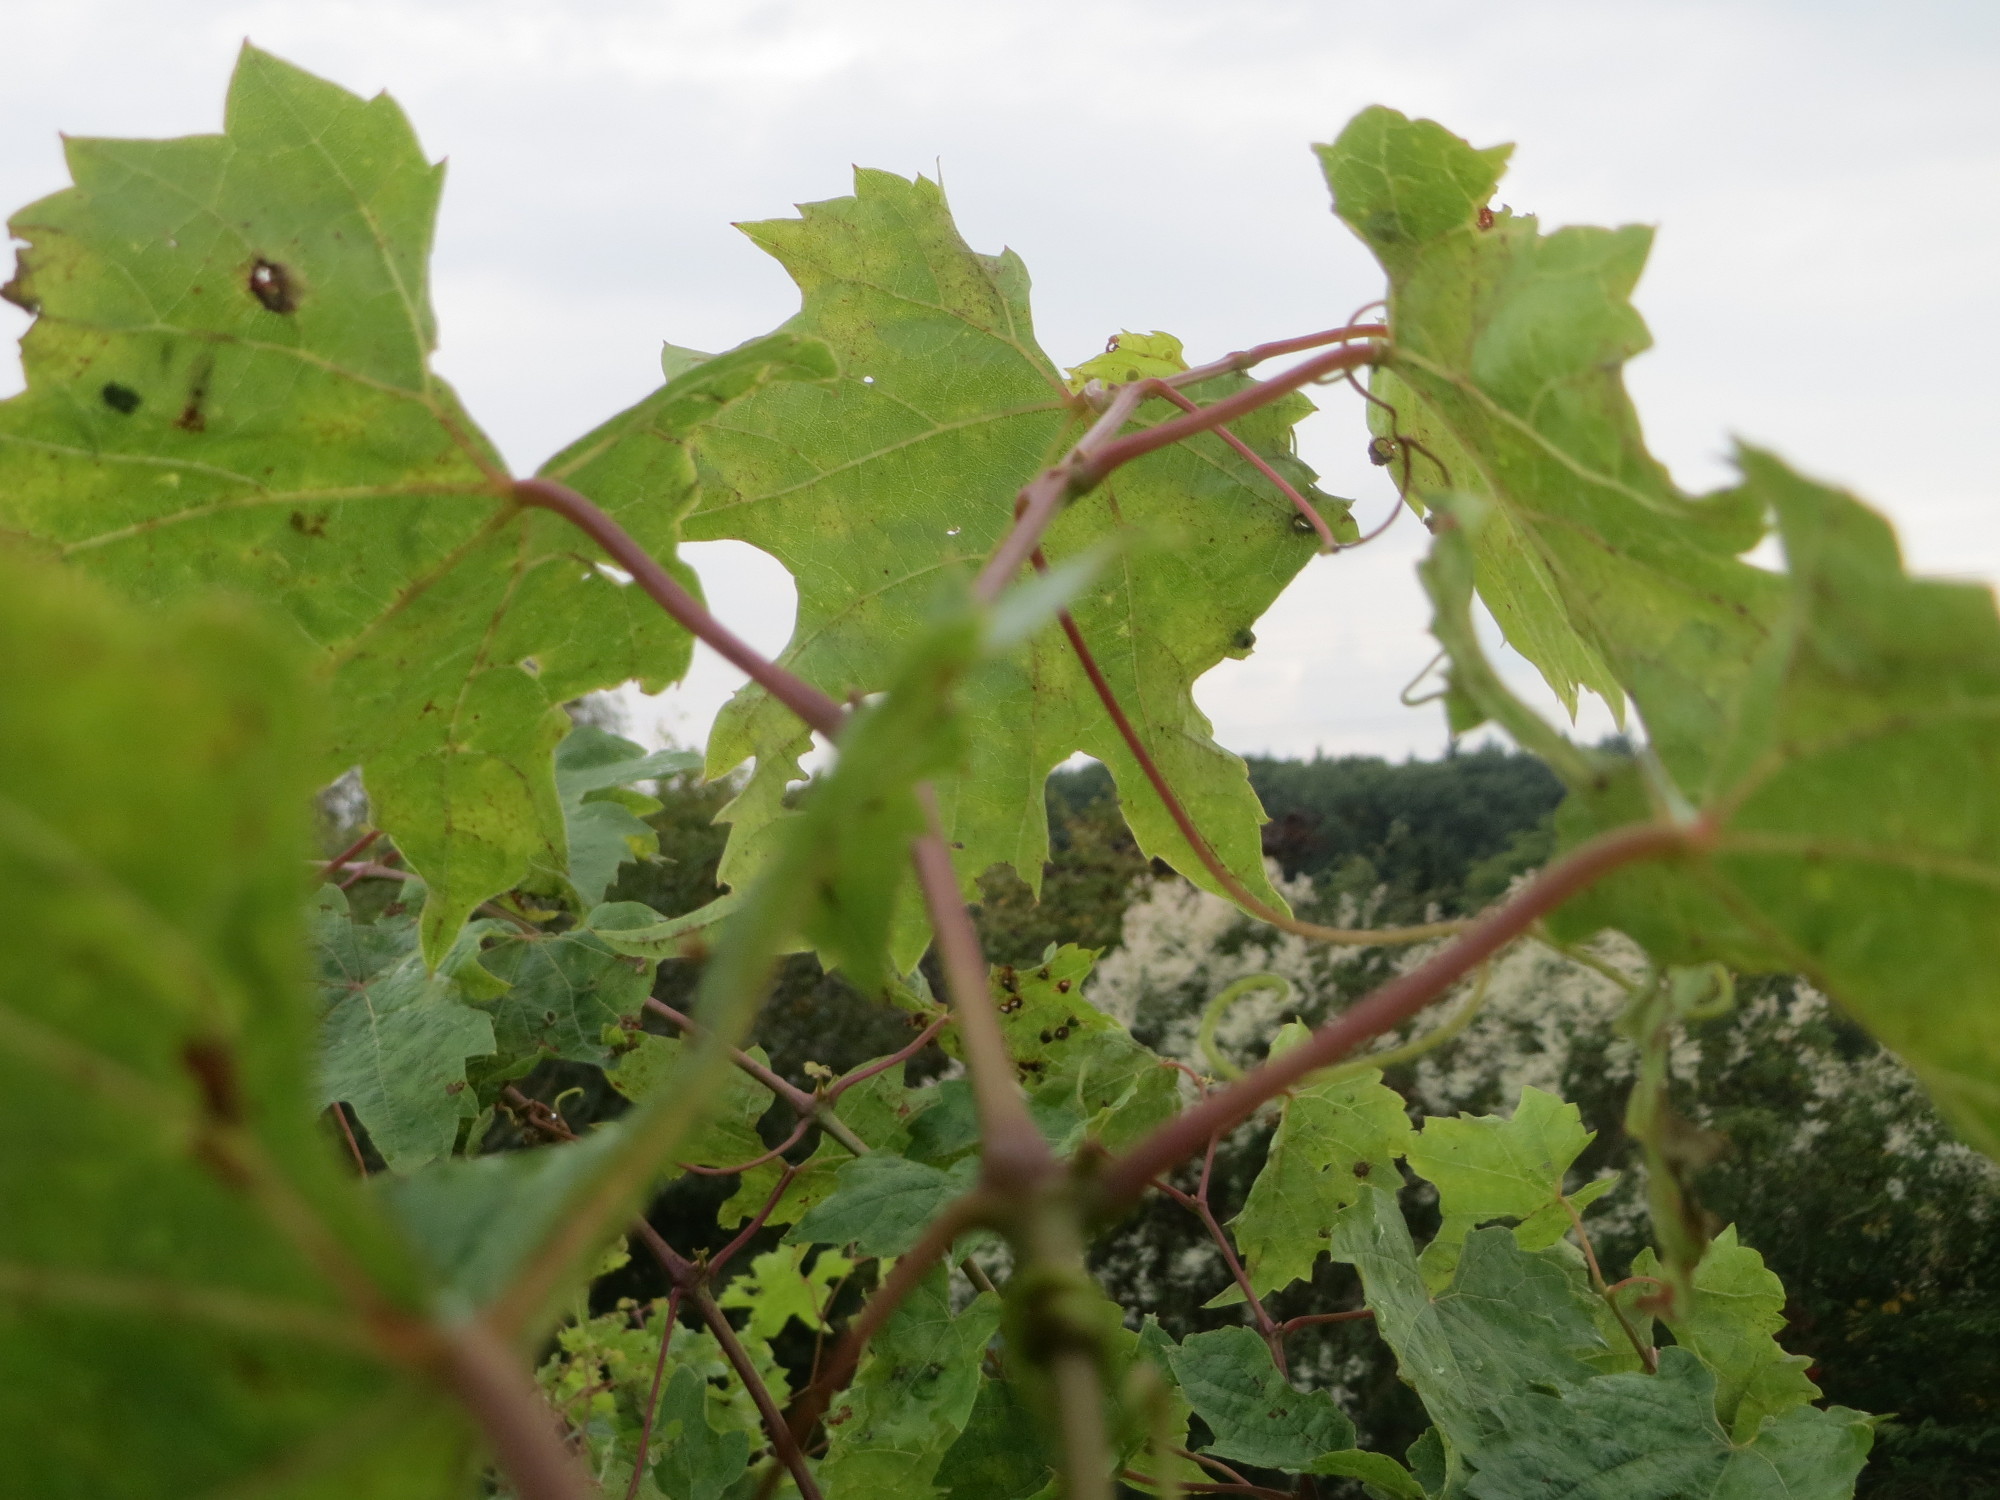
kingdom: Plantae
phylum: Tracheophyta
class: Magnoliopsida
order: Vitales
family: Vitaceae
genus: Vitis
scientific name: Vitis vinifera
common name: Grape-vine
